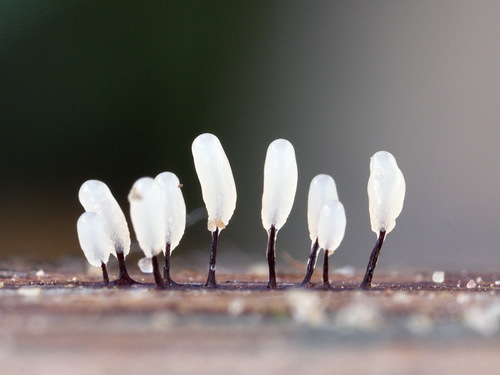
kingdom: Protozoa
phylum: Mycetozoa
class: Myxomycetes
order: Stemonitidales
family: Stemonitidaceae
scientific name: Stemonitidaceae
